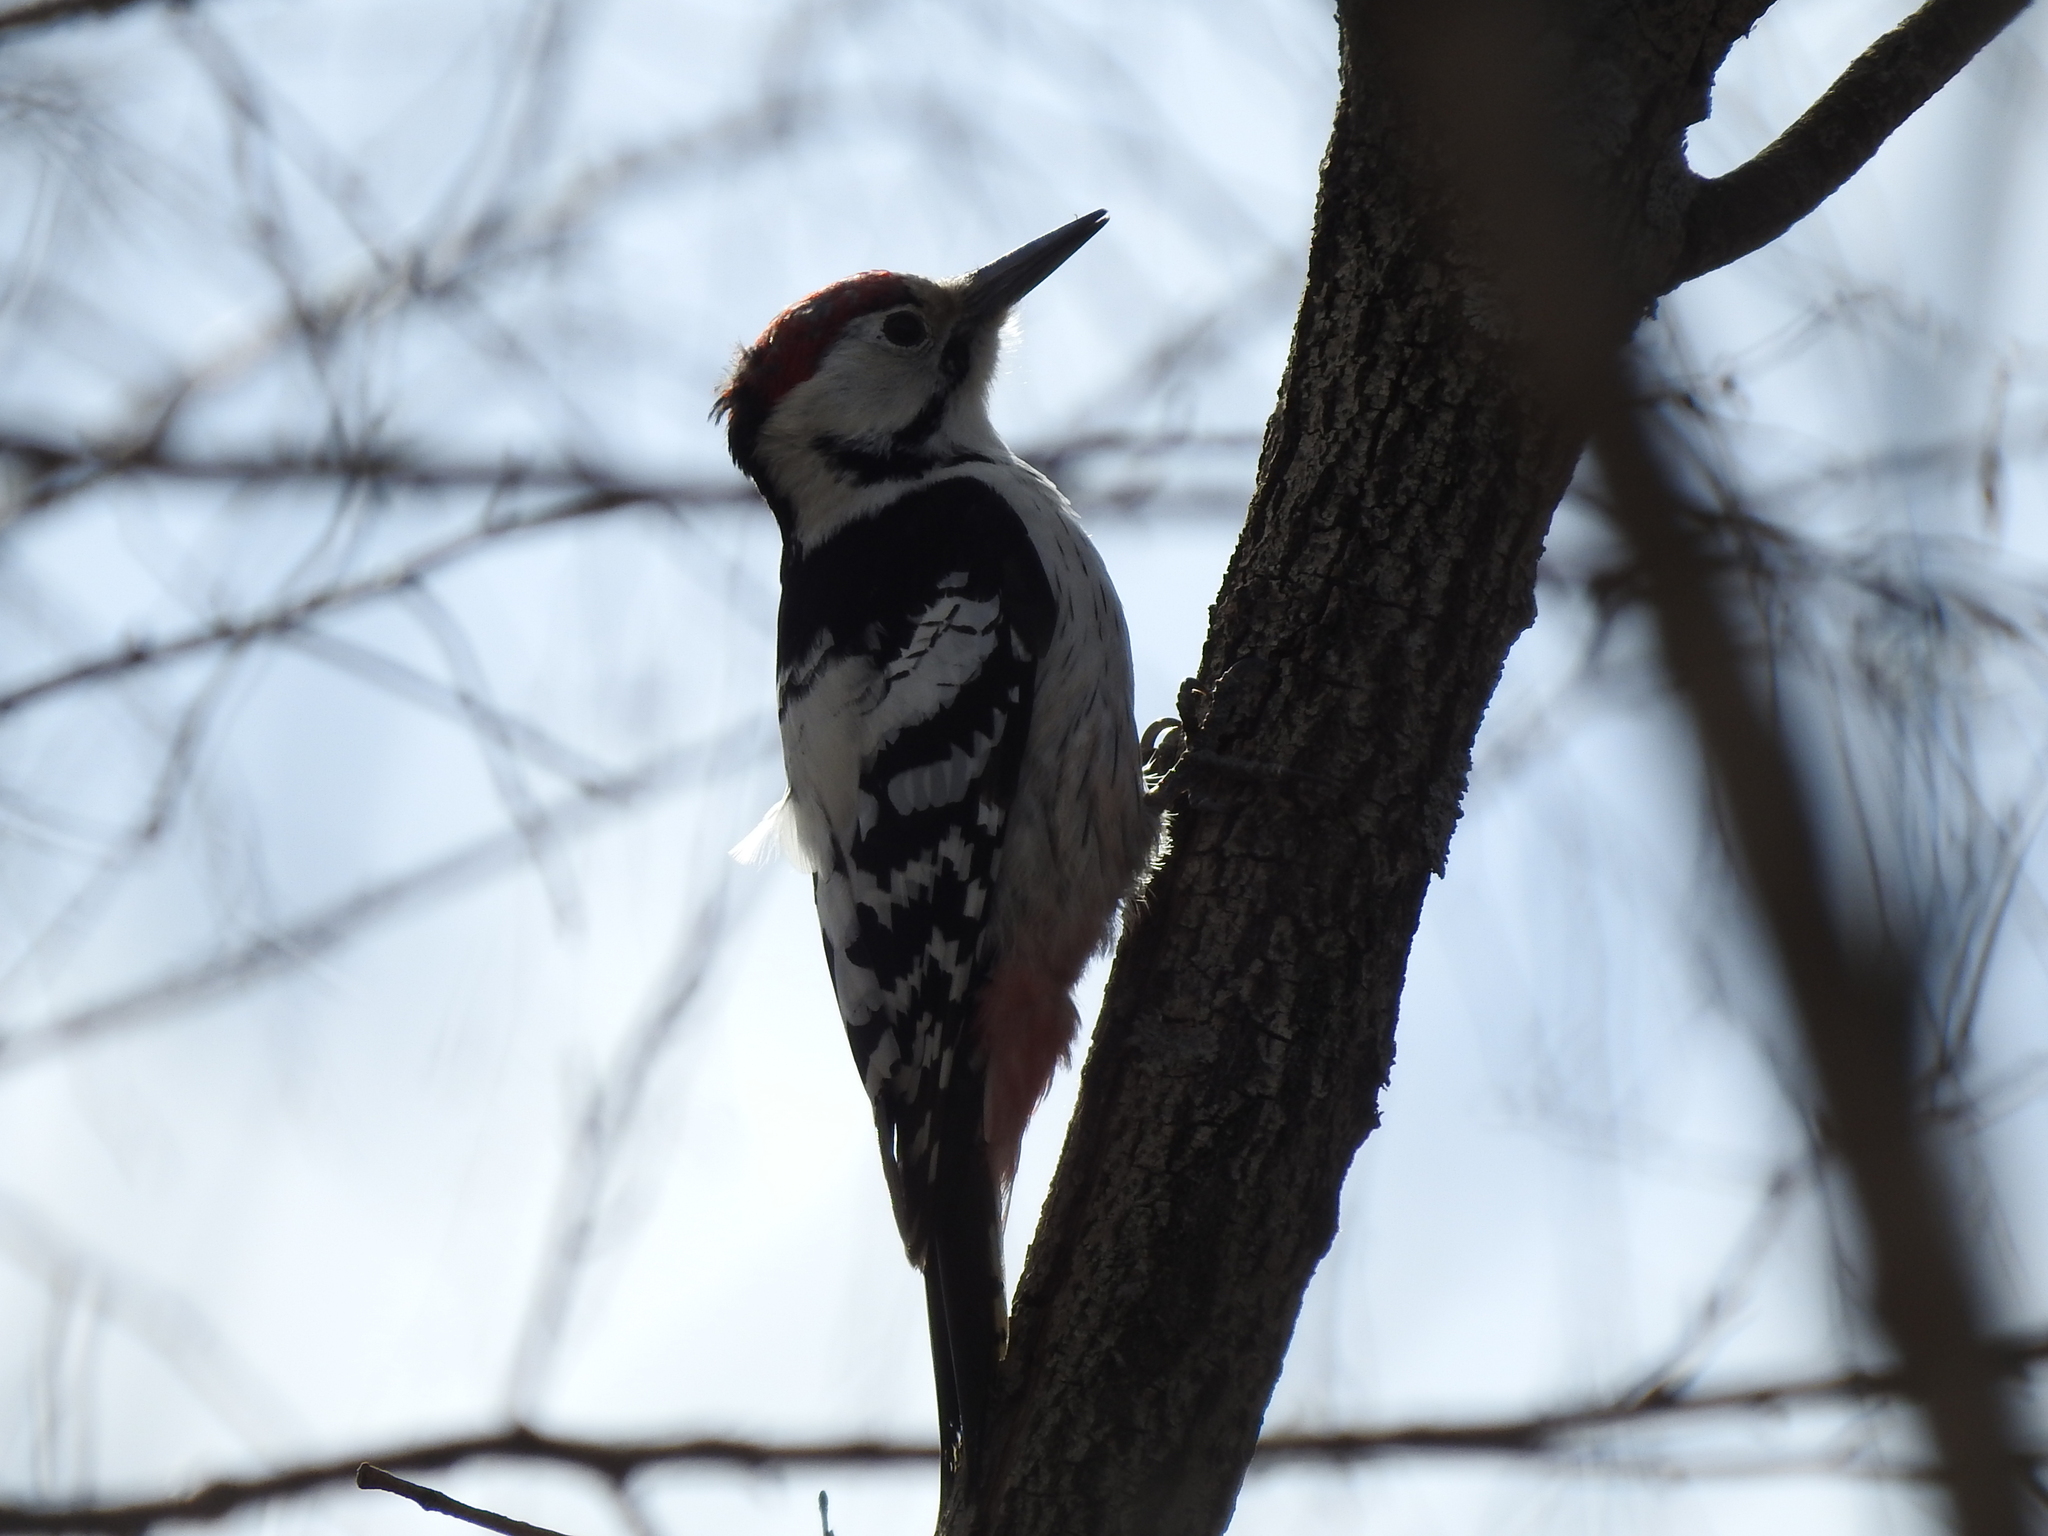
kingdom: Animalia
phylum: Chordata
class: Aves
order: Piciformes
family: Picidae
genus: Dendrocopos
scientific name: Dendrocopos leucotos
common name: White-backed woodpecker
